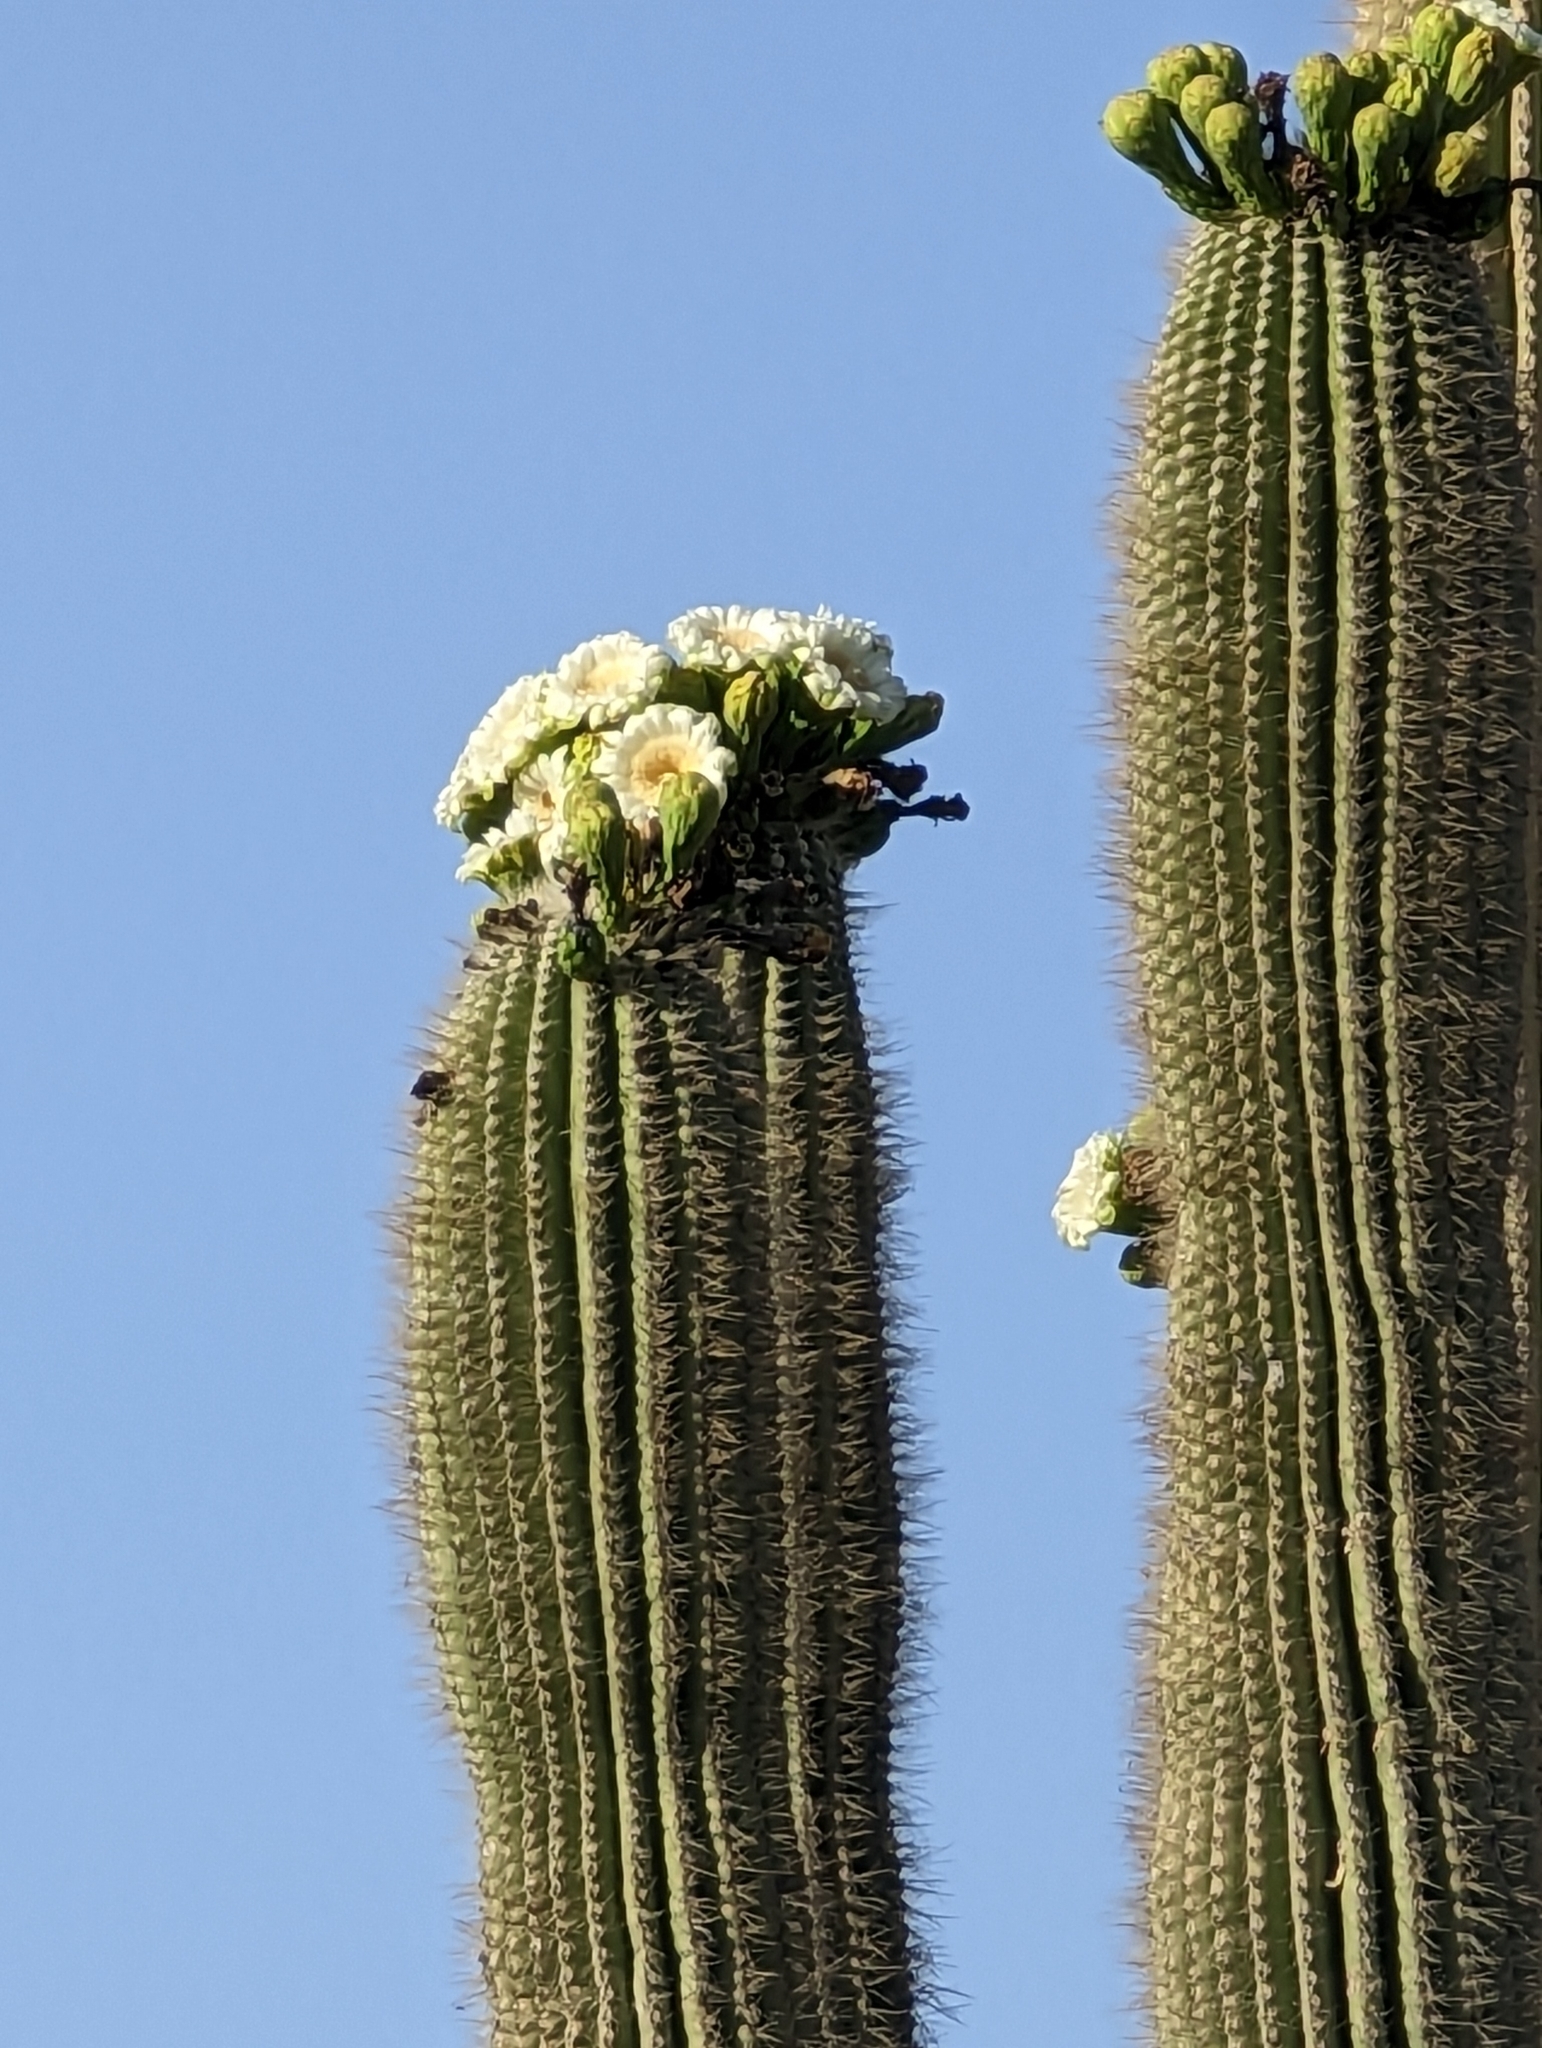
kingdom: Plantae
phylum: Tracheophyta
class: Magnoliopsida
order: Caryophyllales
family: Cactaceae
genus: Carnegiea
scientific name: Carnegiea gigantea
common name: Saguaro
